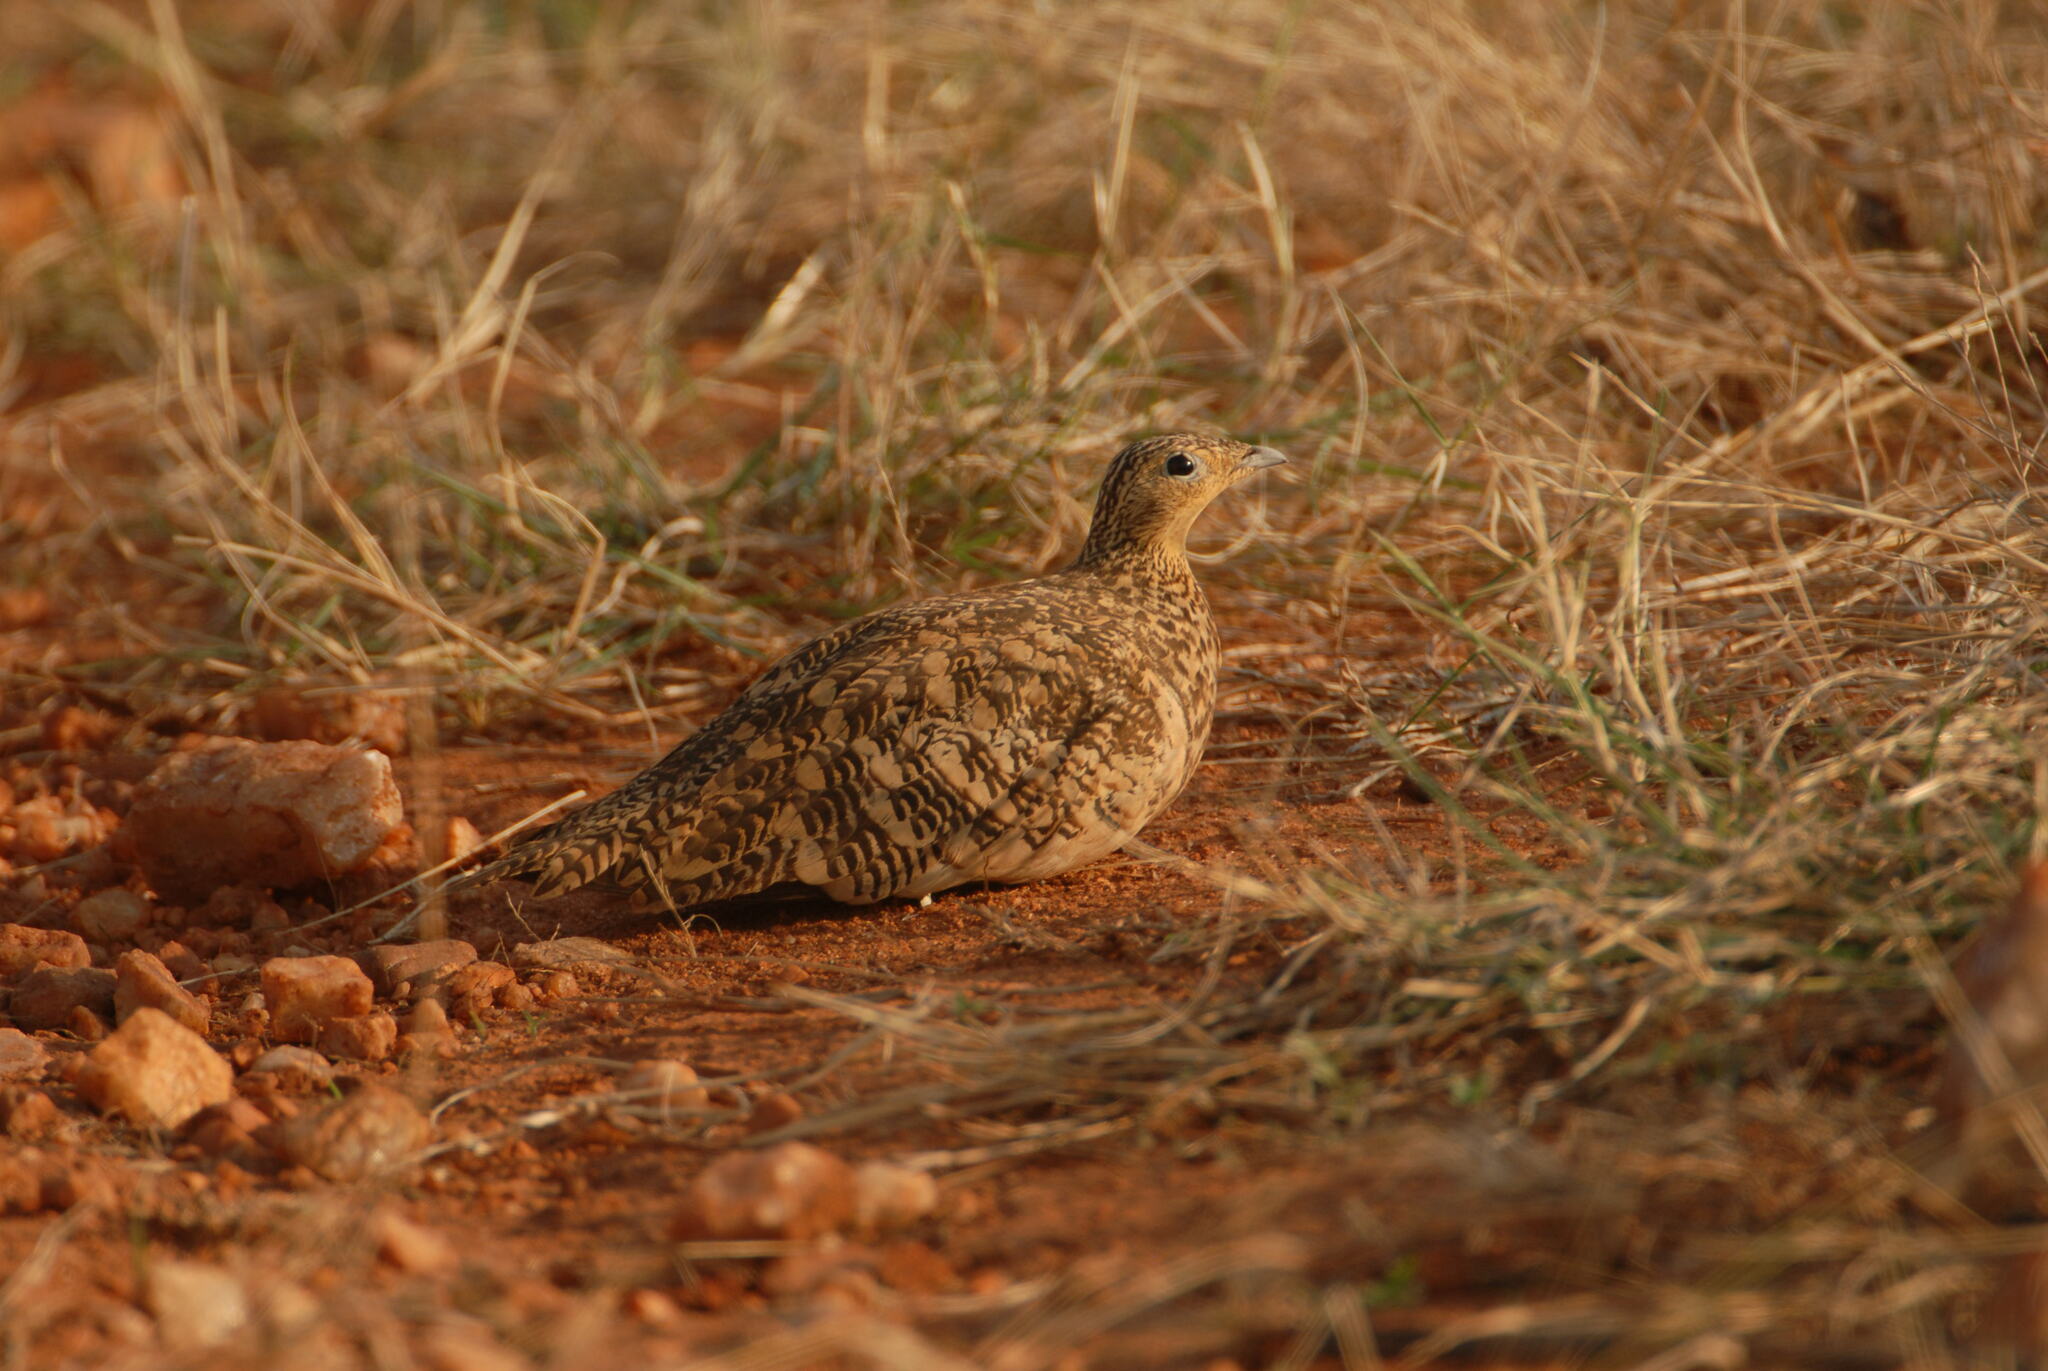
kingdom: Animalia
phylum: Chordata
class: Aves
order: Pteroclidiformes
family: Pteroclididae
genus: Pterocles
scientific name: Pterocles exustus
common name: Chestnut-bellied sandgrouse
